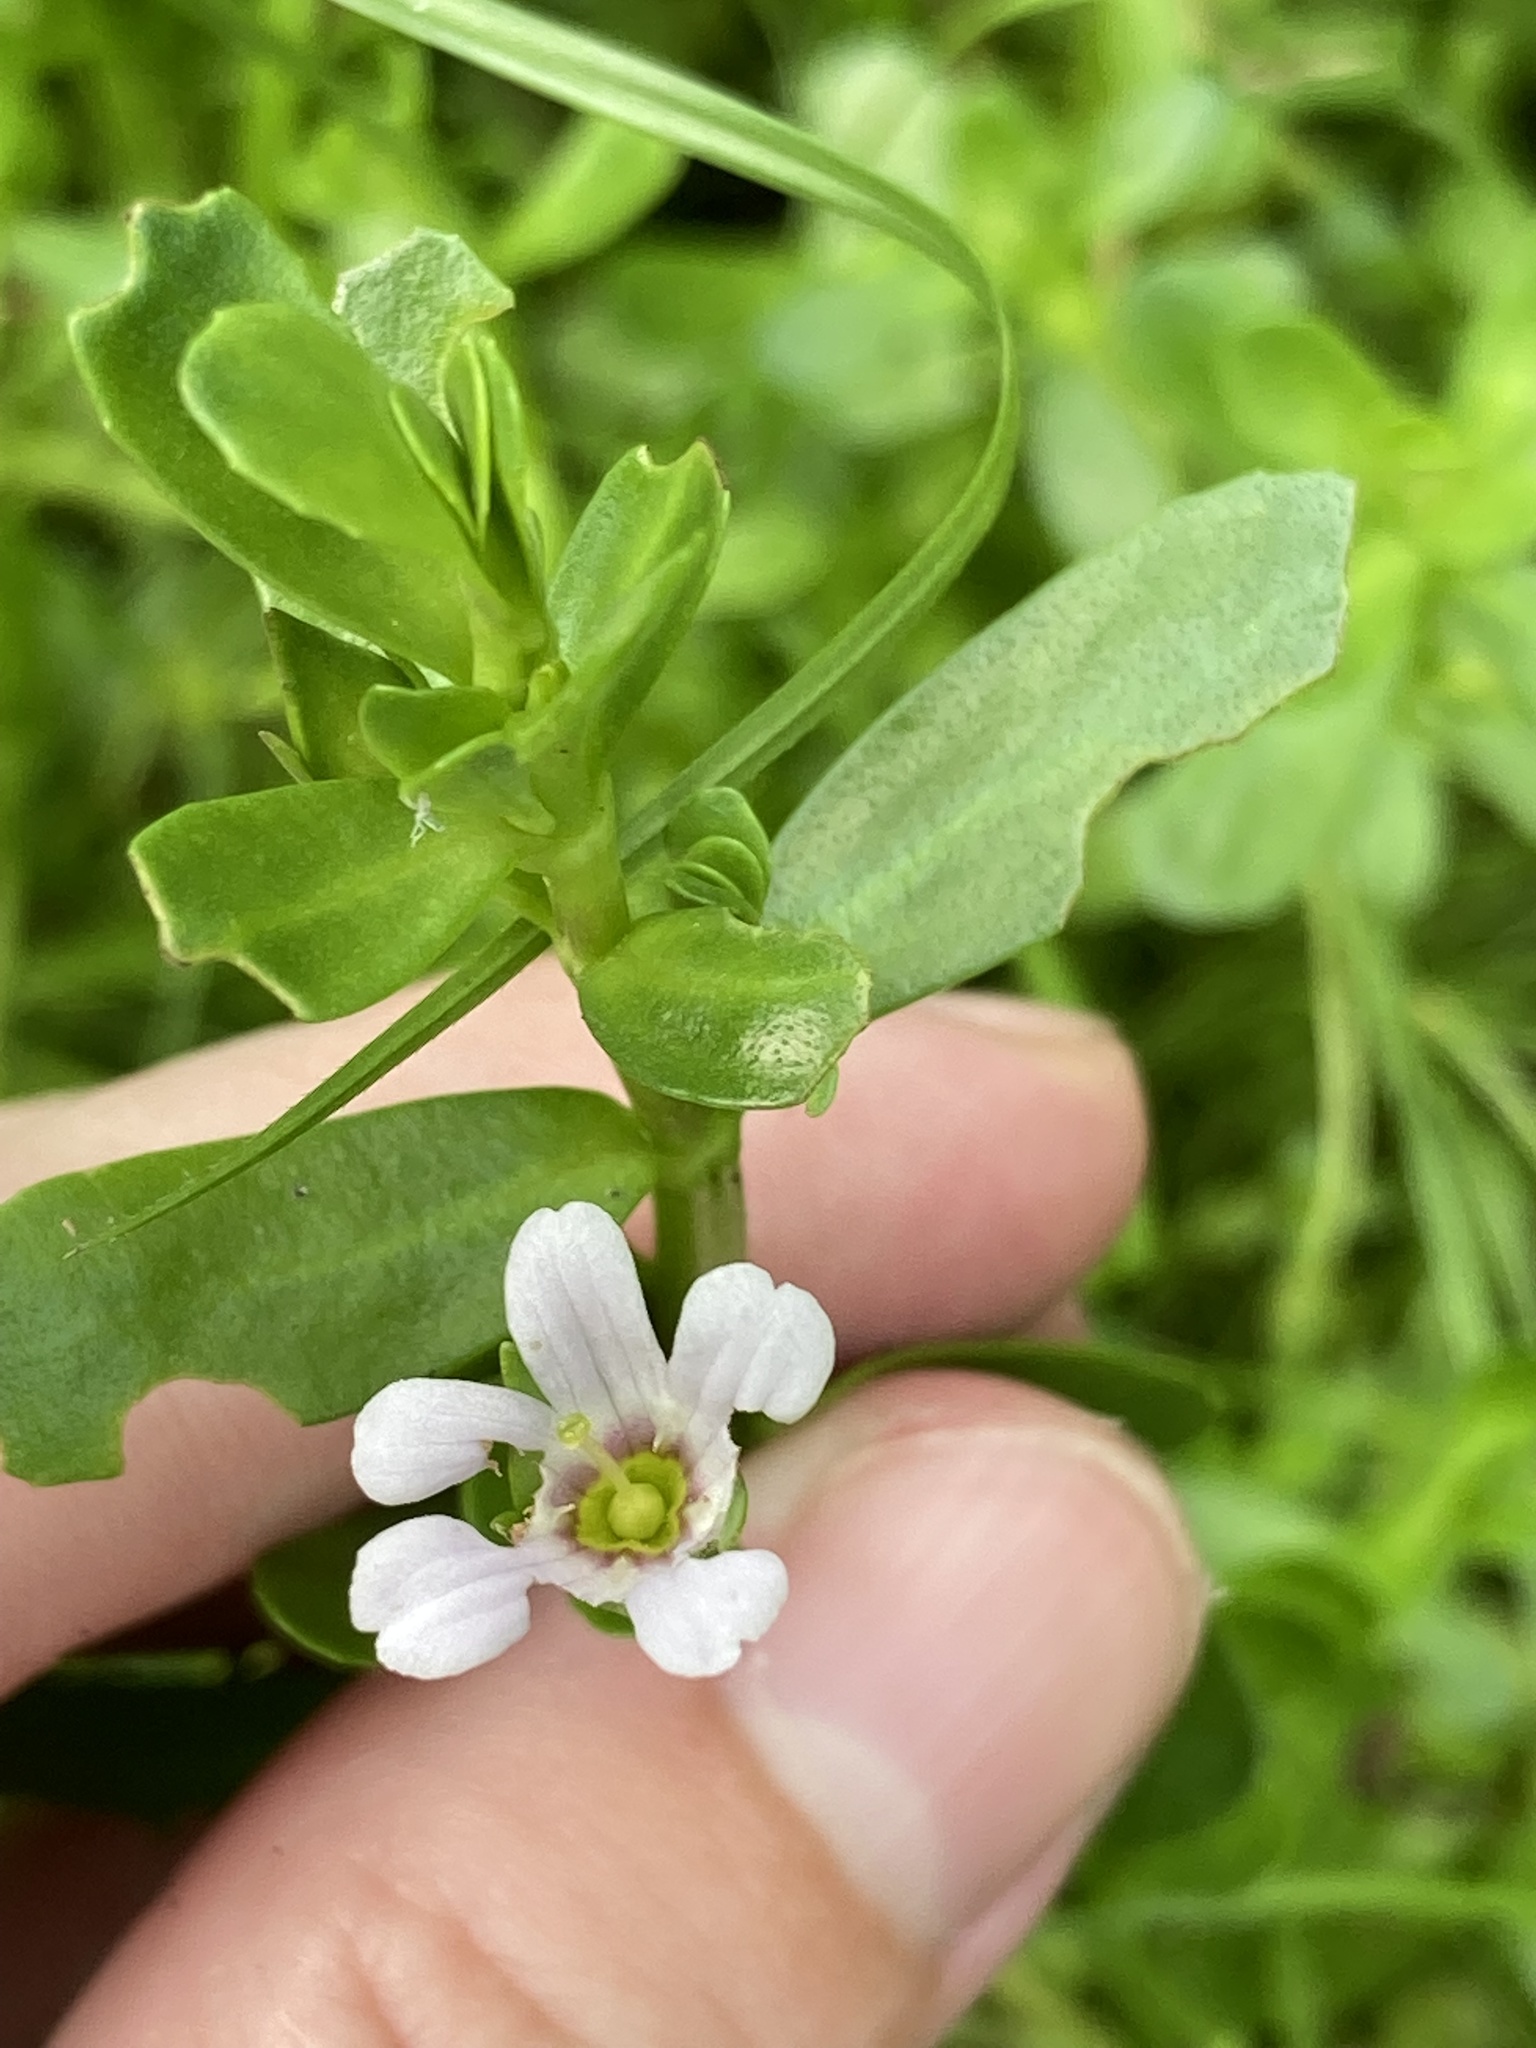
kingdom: Plantae
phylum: Tracheophyta
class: Magnoliopsida
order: Lamiales
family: Plantaginaceae
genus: Bacopa
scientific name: Bacopa monnieri
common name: Indian-pennywort
